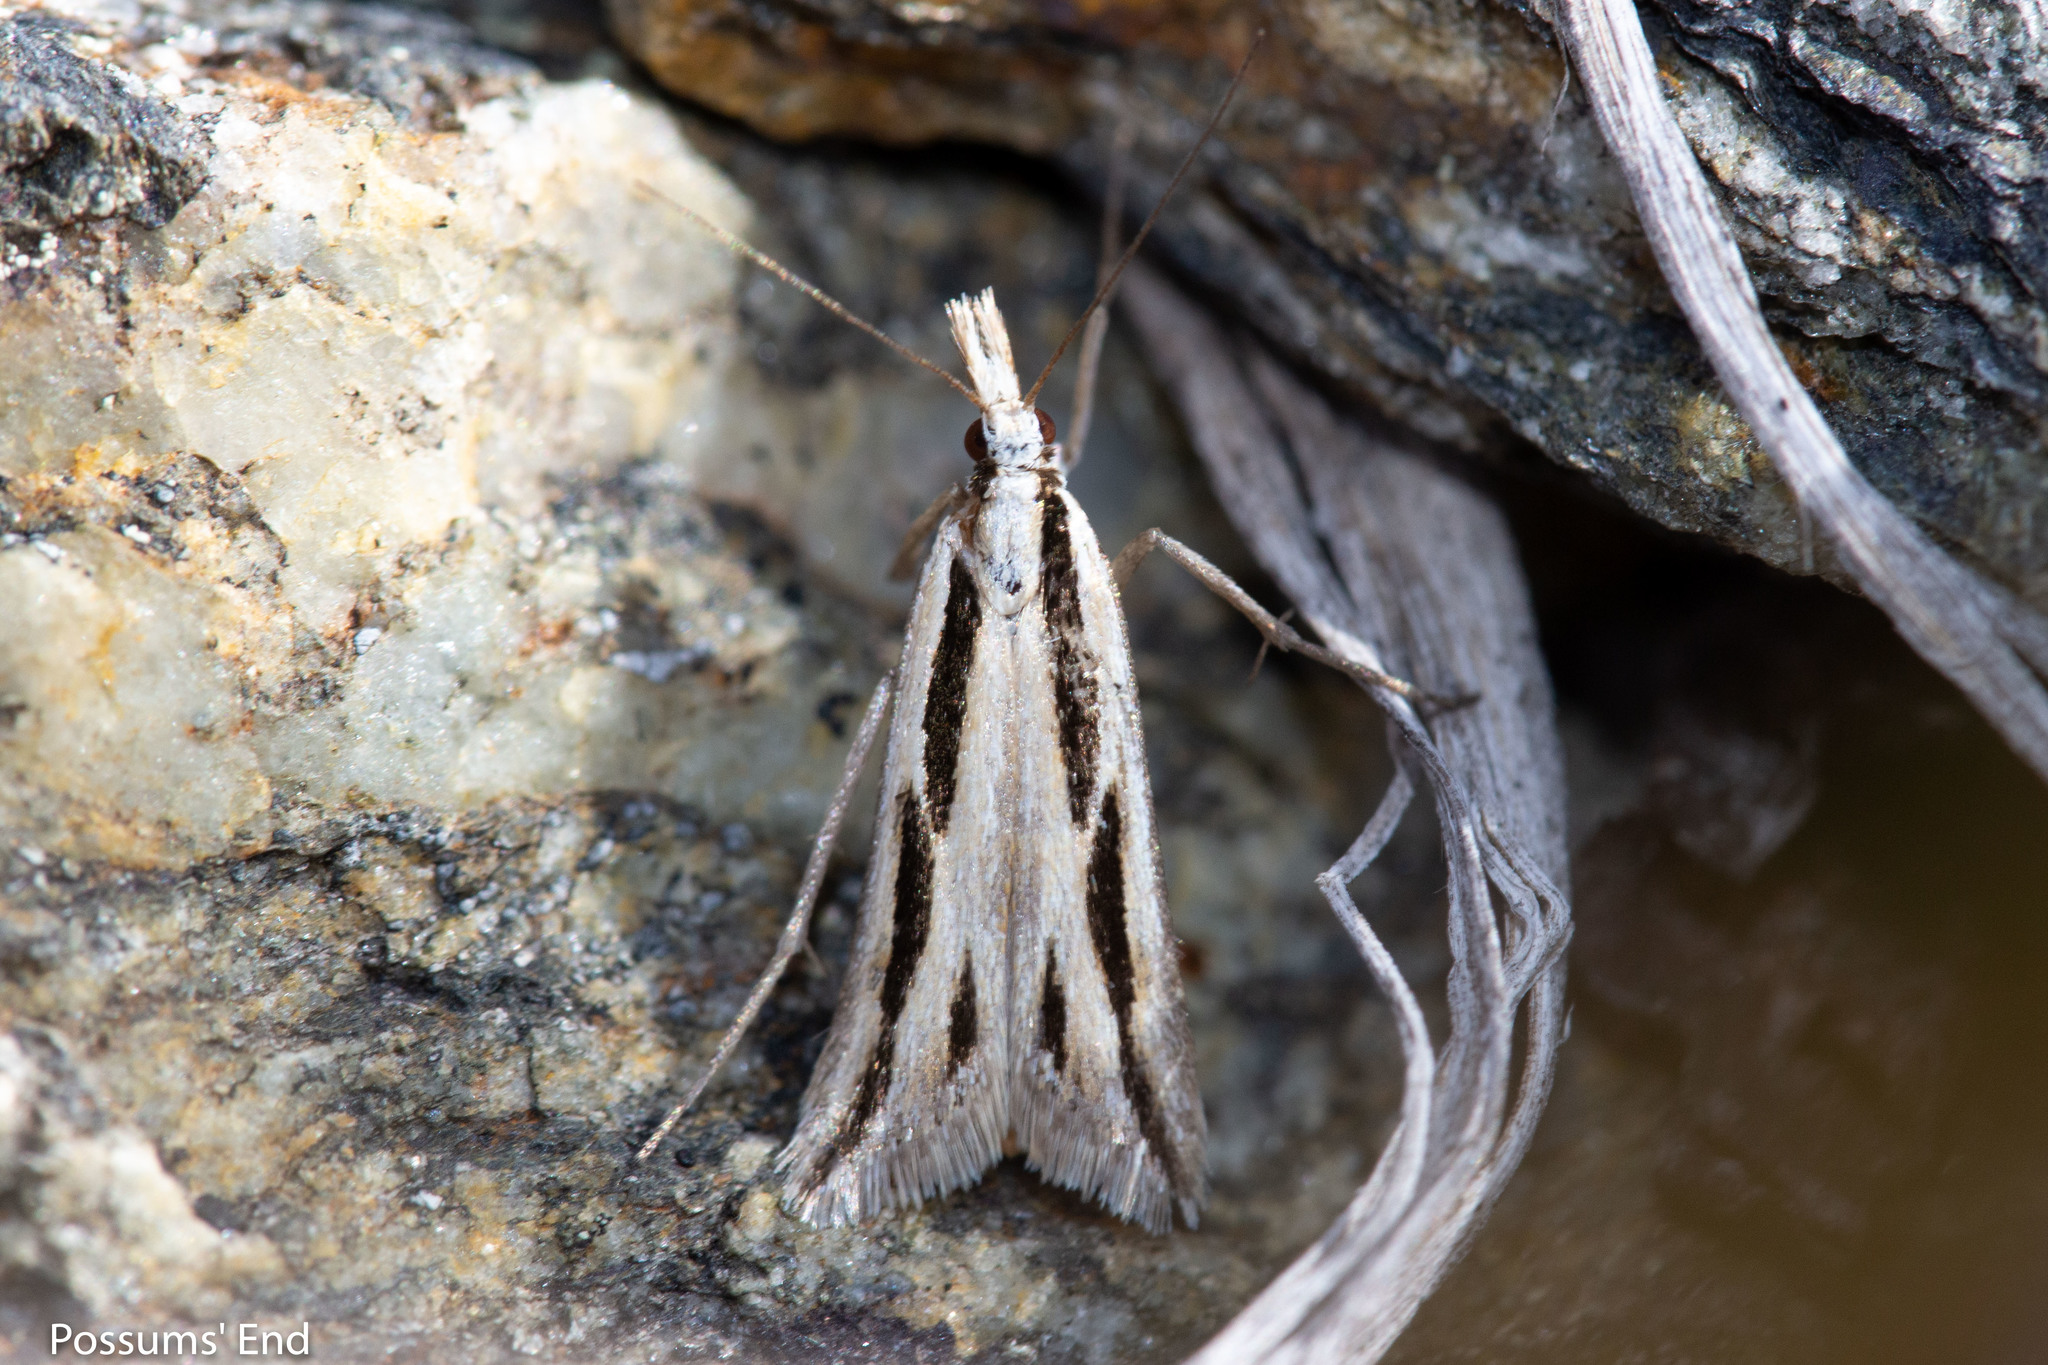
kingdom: Animalia
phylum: Arthropoda
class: Insecta
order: Lepidoptera
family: Crambidae
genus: Eudonia
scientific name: Eudonia trivirgata
